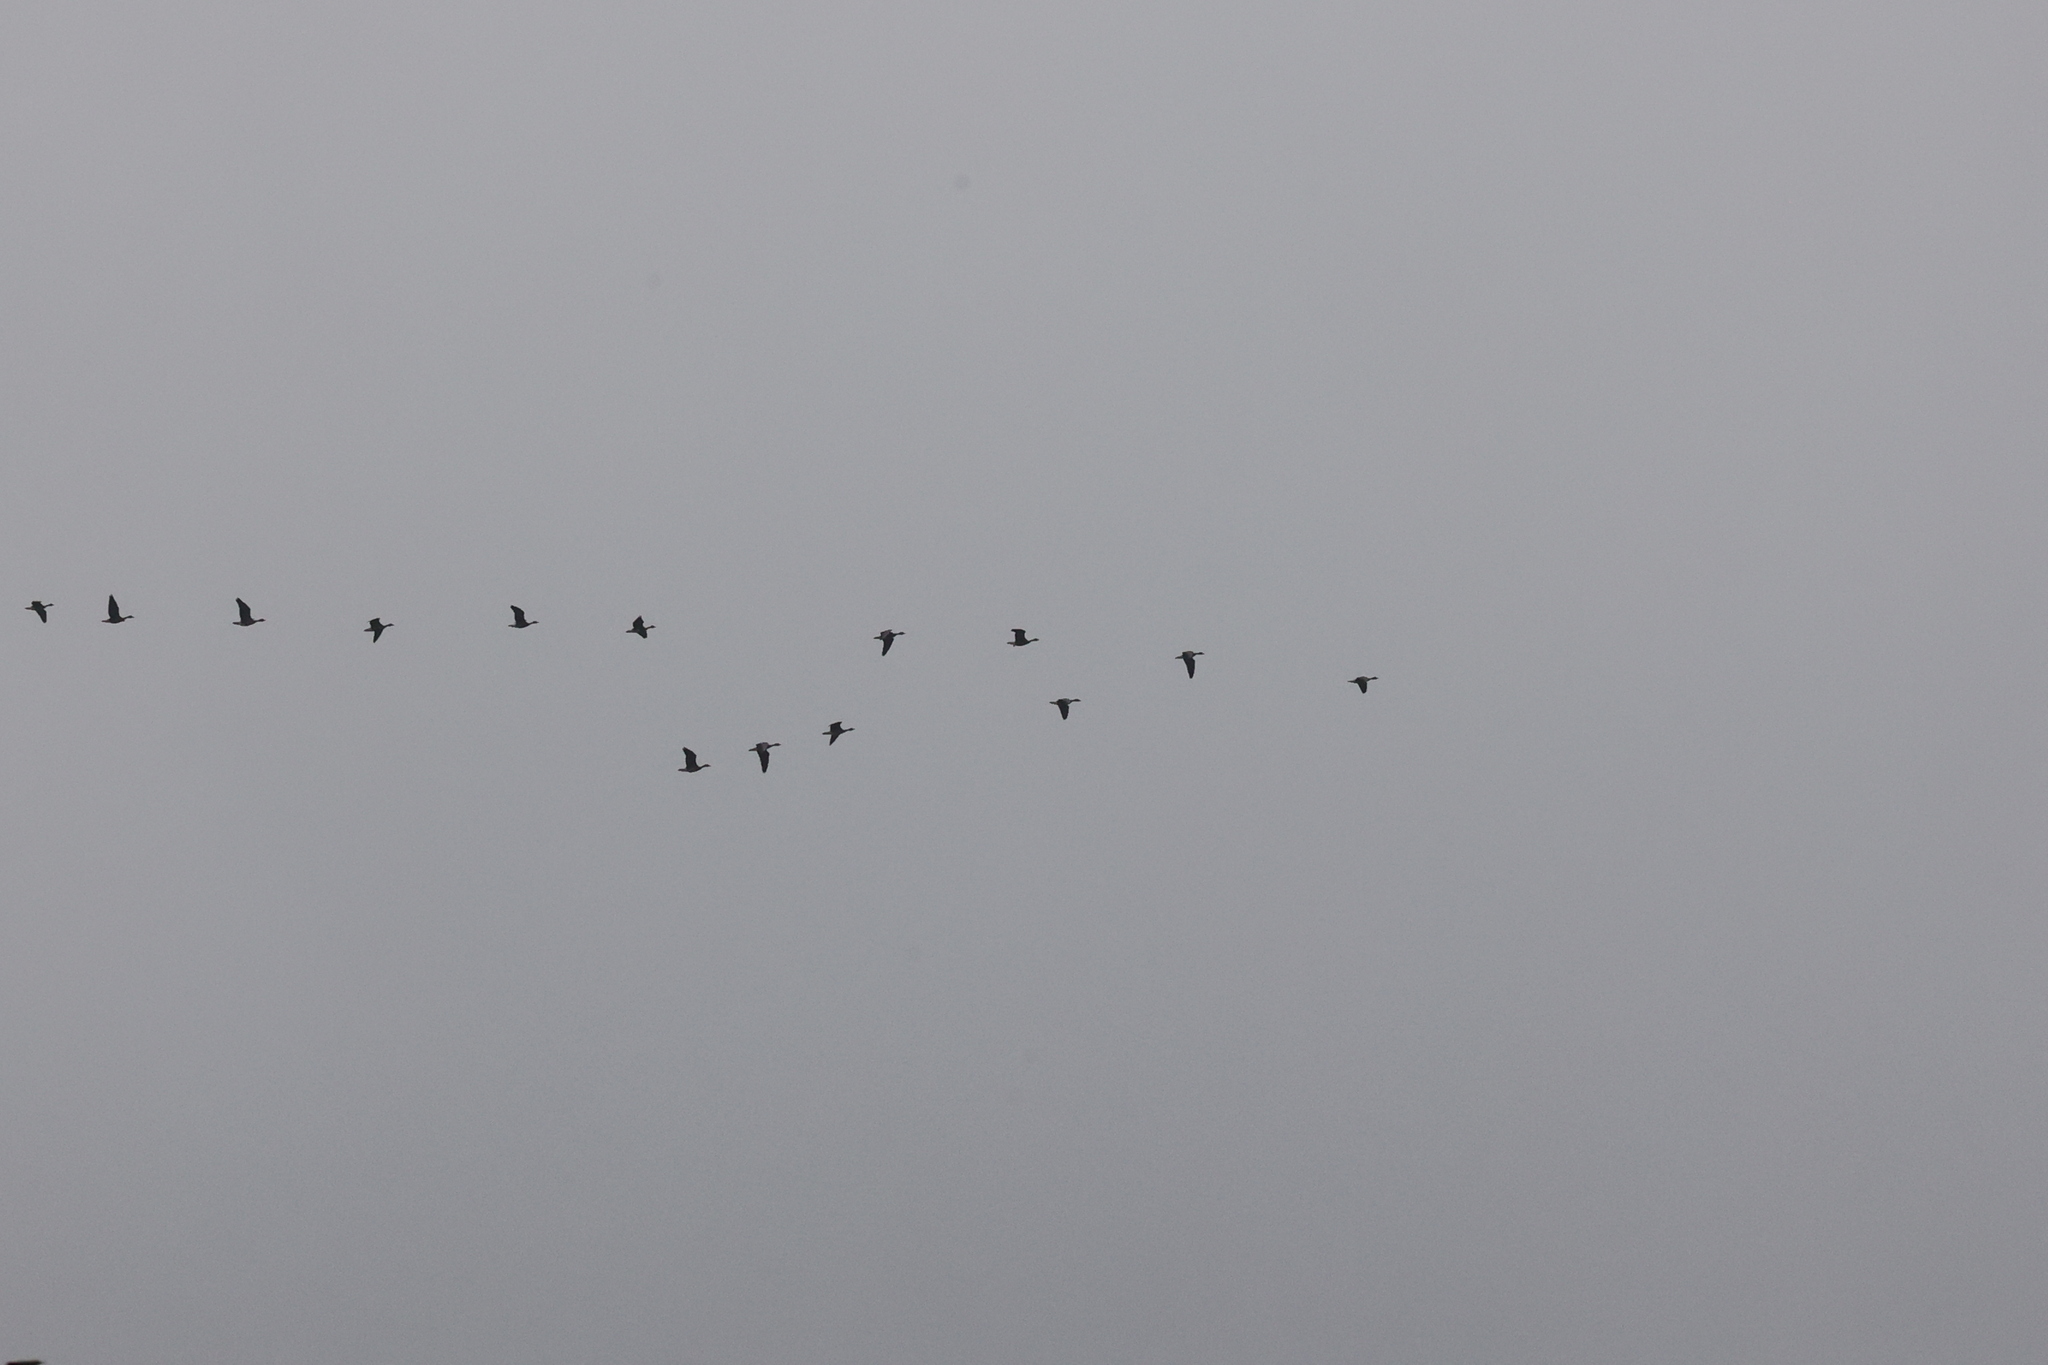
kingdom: Animalia
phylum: Chordata
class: Aves
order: Anseriformes
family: Anatidae
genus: Anser
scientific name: Anser albifrons
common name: Greater white-fronted goose
